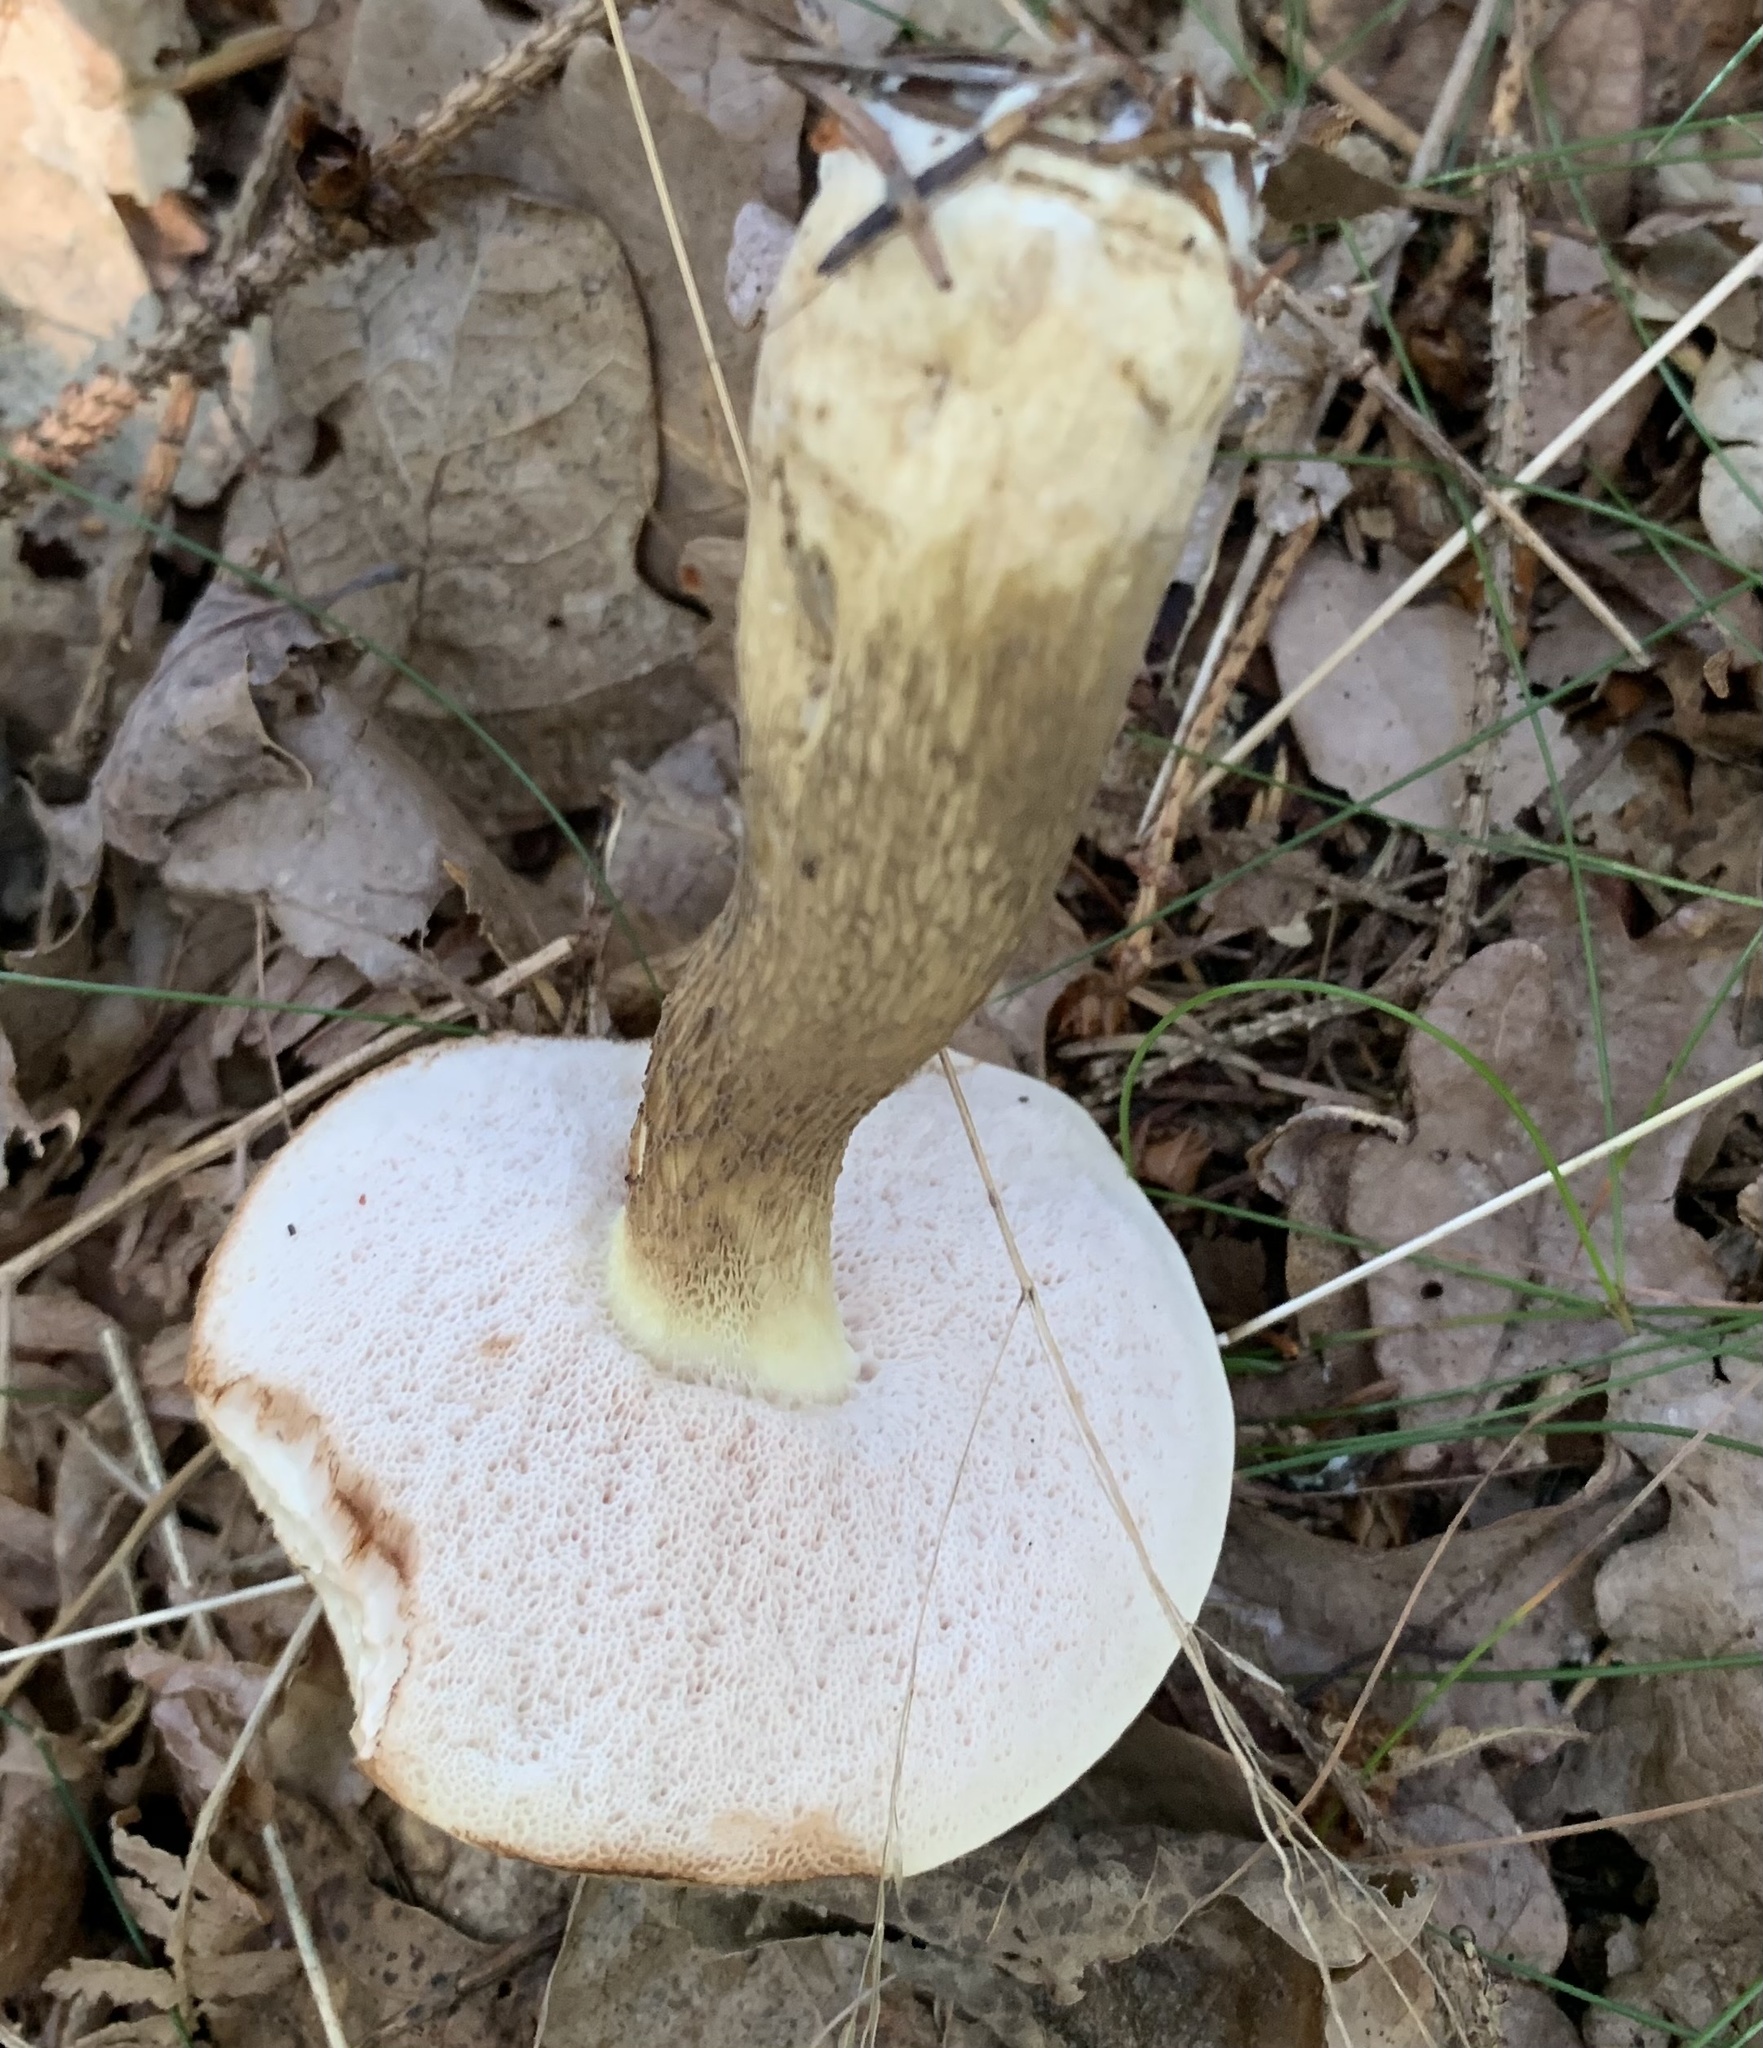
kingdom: Fungi
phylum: Basidiomycota
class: Agaricomycetes
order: Boletales
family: Boletaceae
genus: Tylopilus
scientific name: Tylopilus felleus
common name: Bitter bolete
